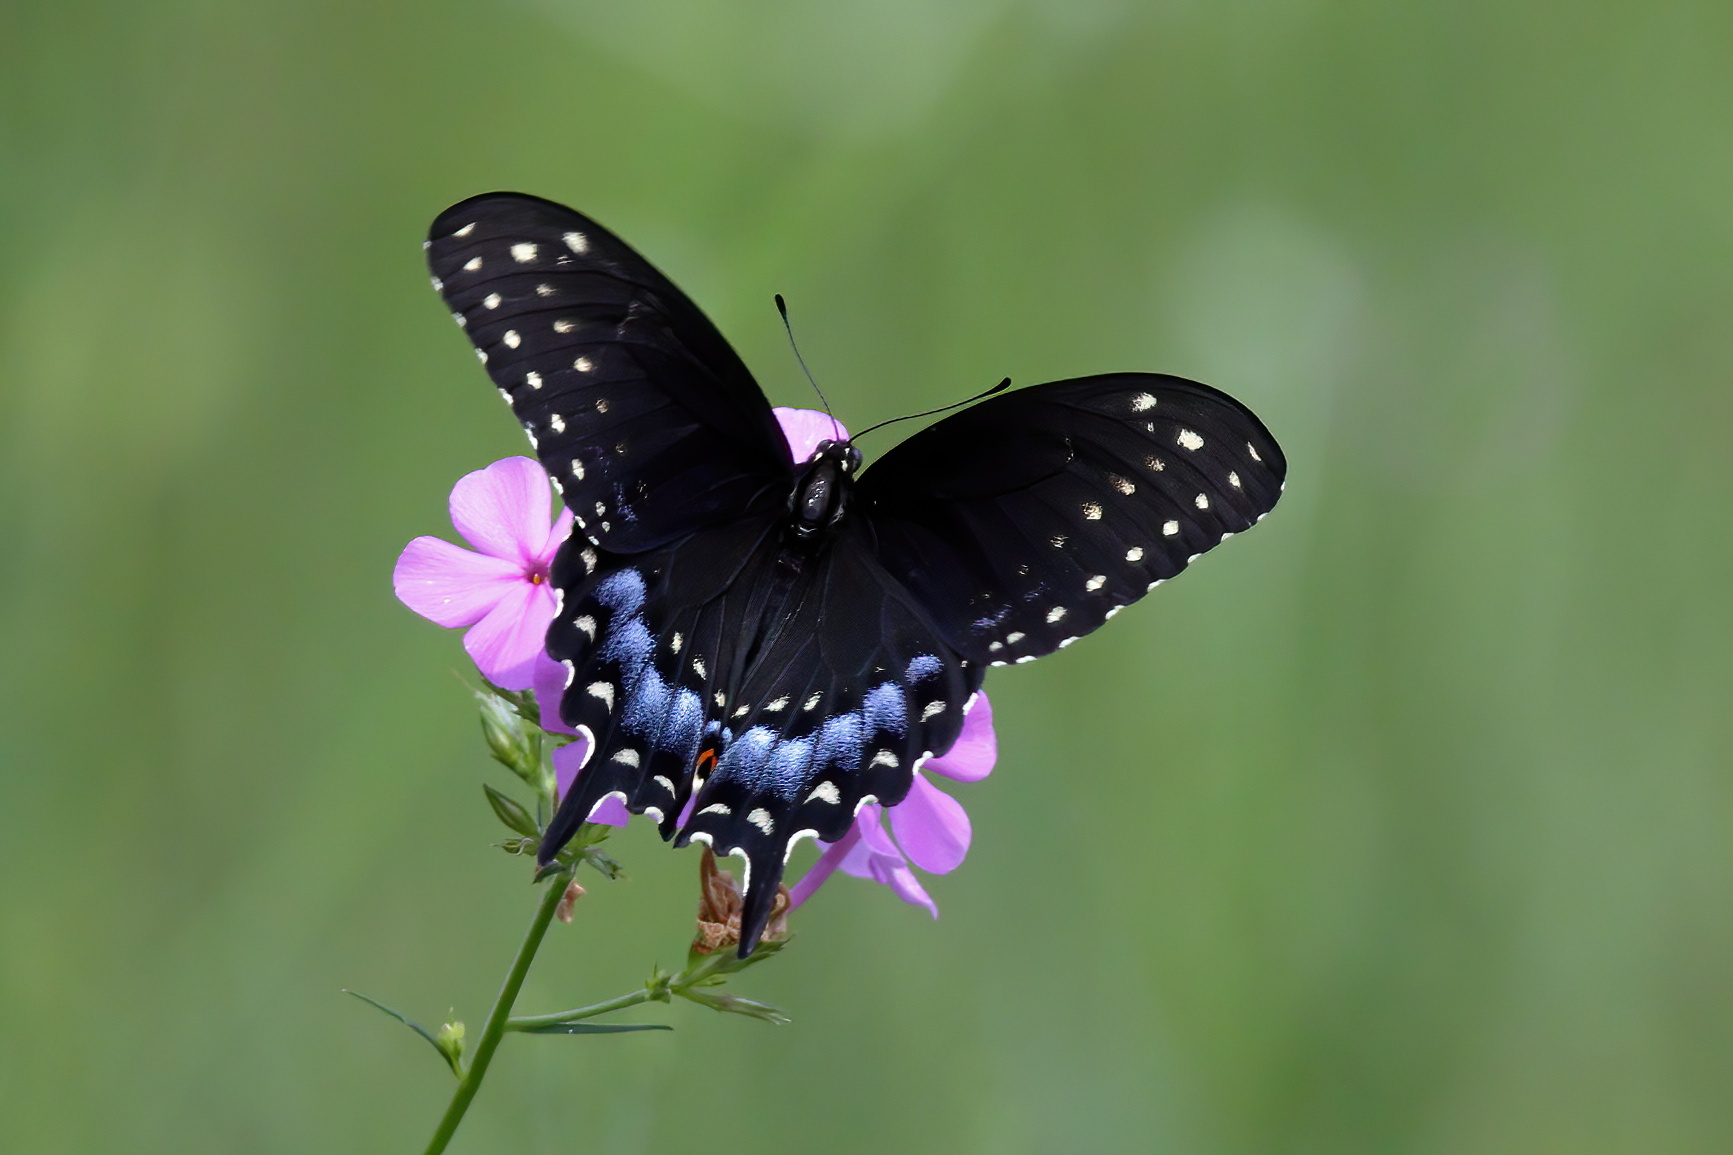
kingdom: Animalia
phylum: Arthropoda
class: Insecta
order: Lepidoptera
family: Papilionidae
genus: Papilio
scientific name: Papilio polyxenes
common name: Black swallowtail
